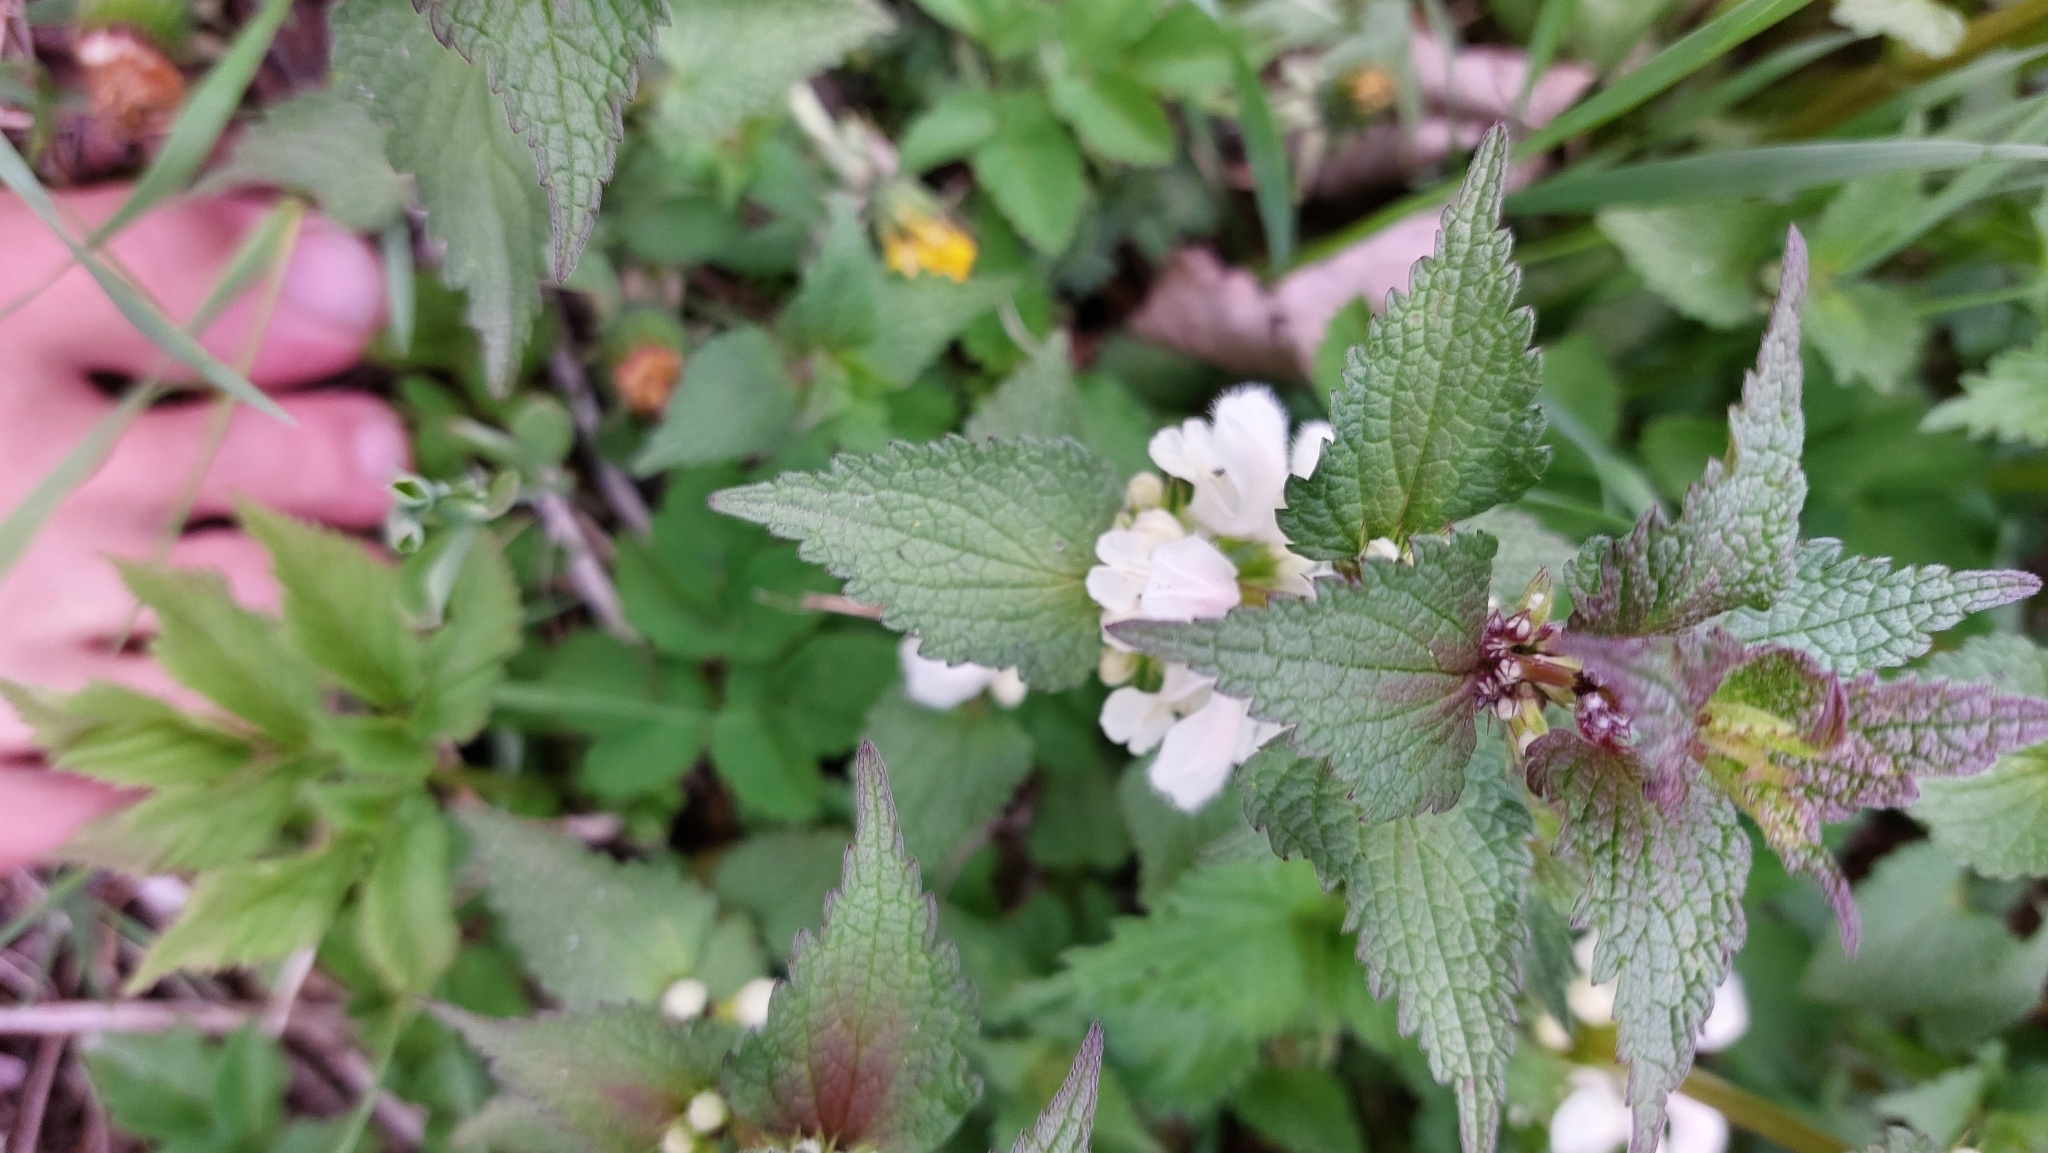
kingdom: Plantae
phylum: Tracheophyta
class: Magnoliopsida
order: Lamiales
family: Lamiaceae
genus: Lamium
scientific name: Lamium album
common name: White dead-nettle
